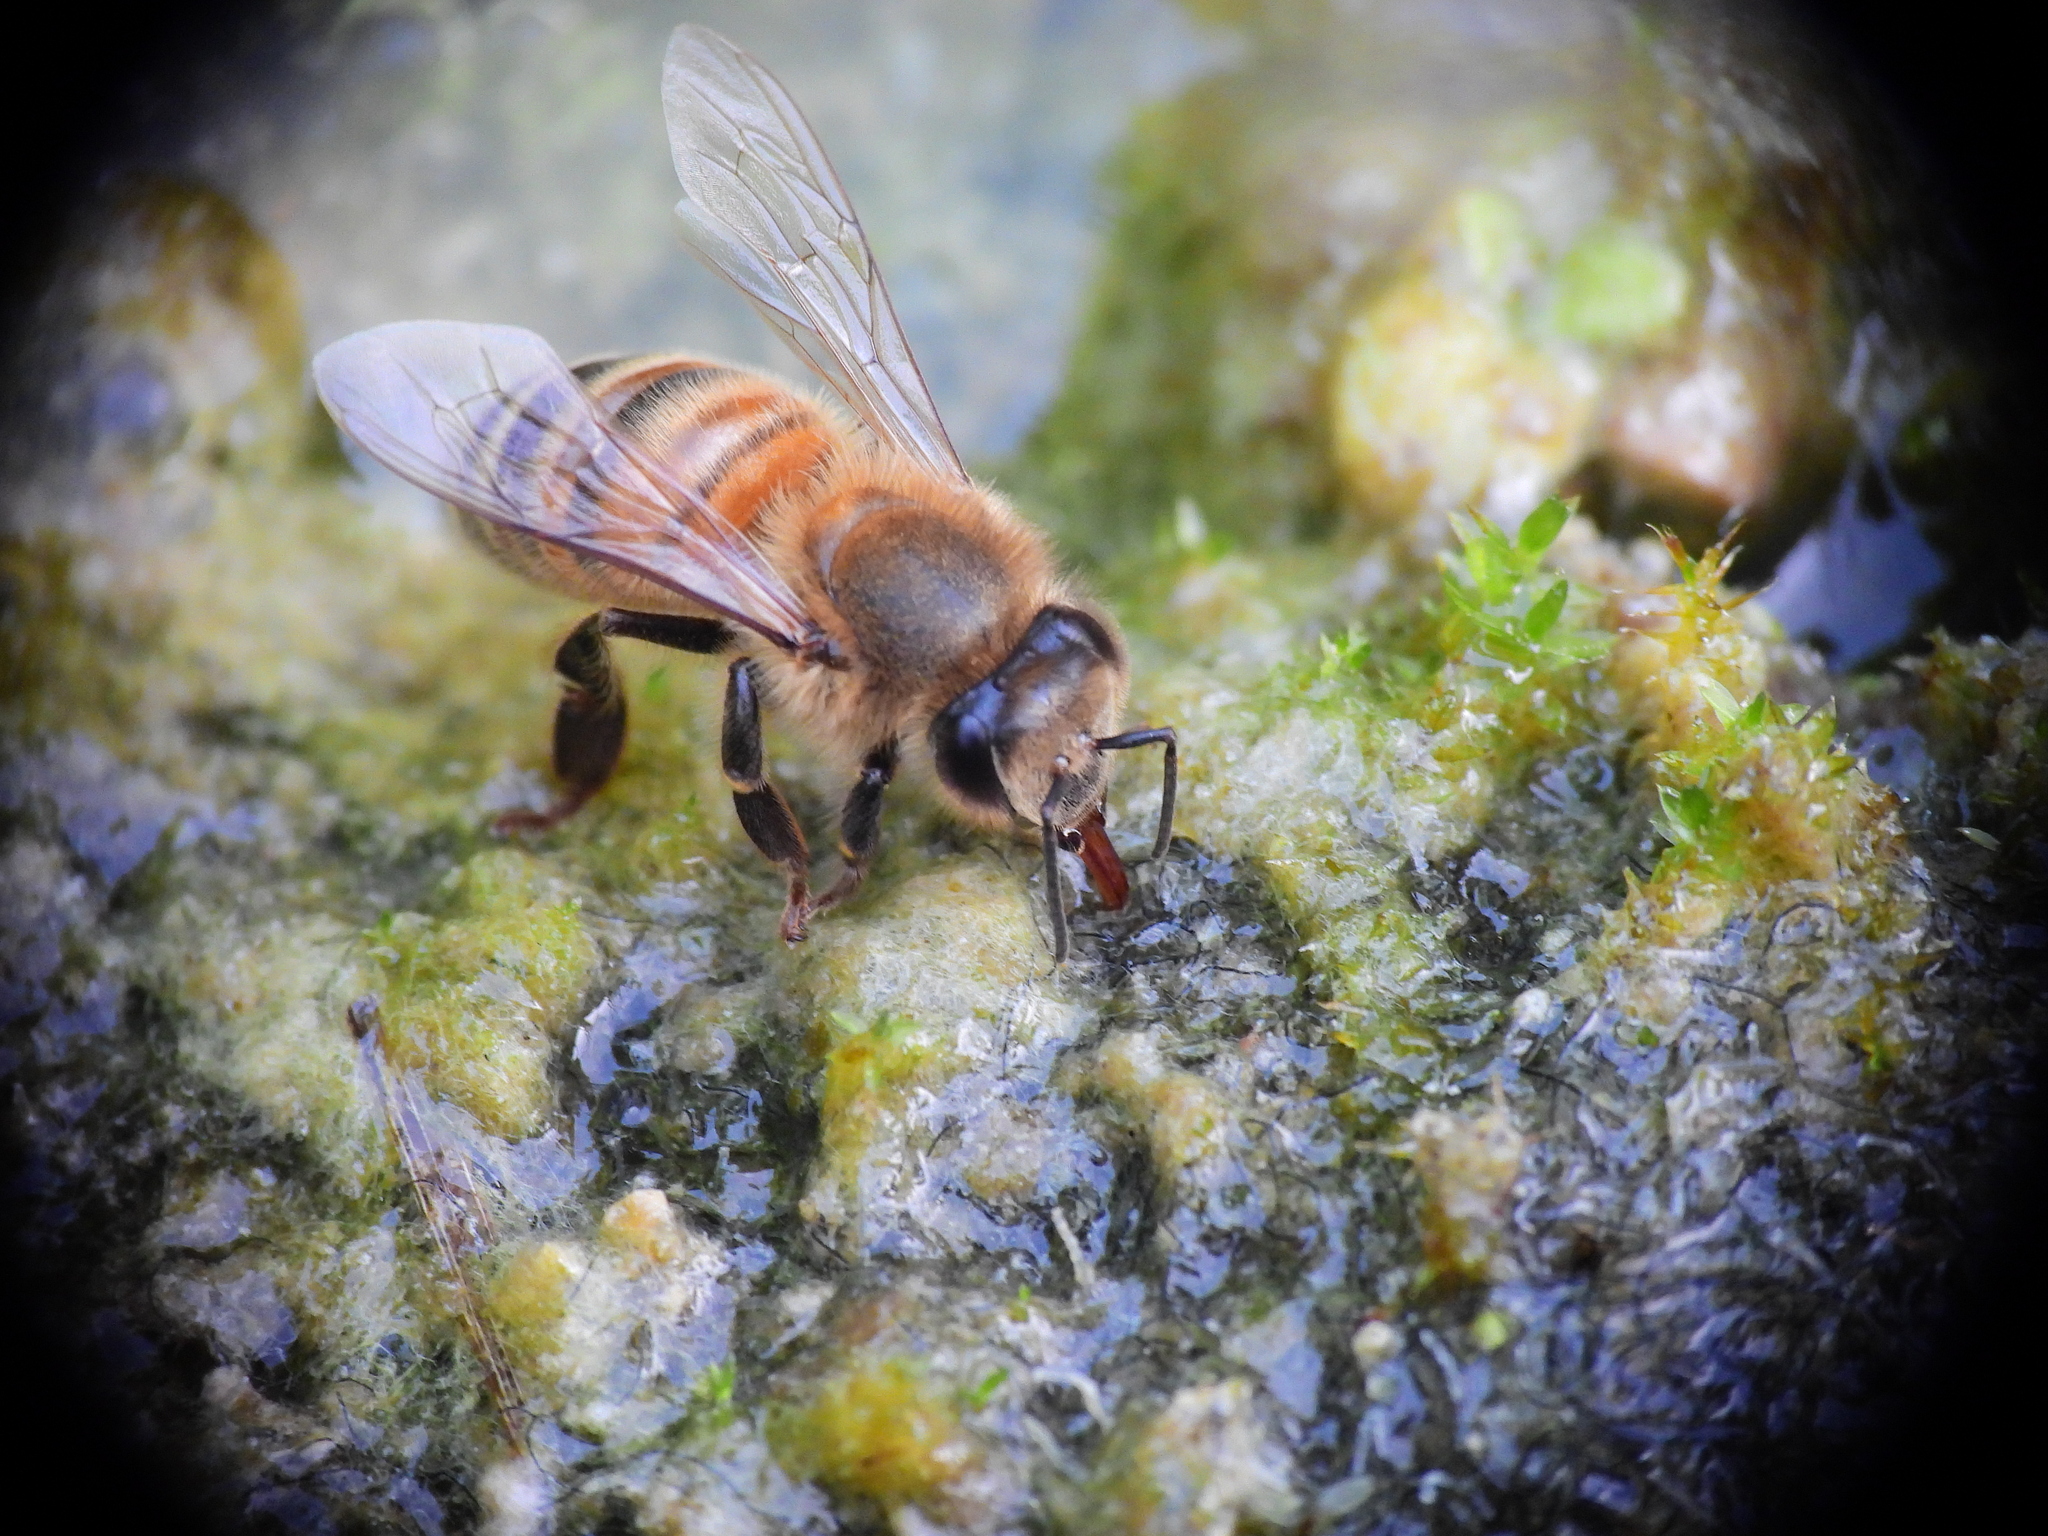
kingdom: Animalia
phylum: Arthropoda
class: Insecta
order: Hymenoptera
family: Apidae
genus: Apis
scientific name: Apis mellifera
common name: Honey bee
